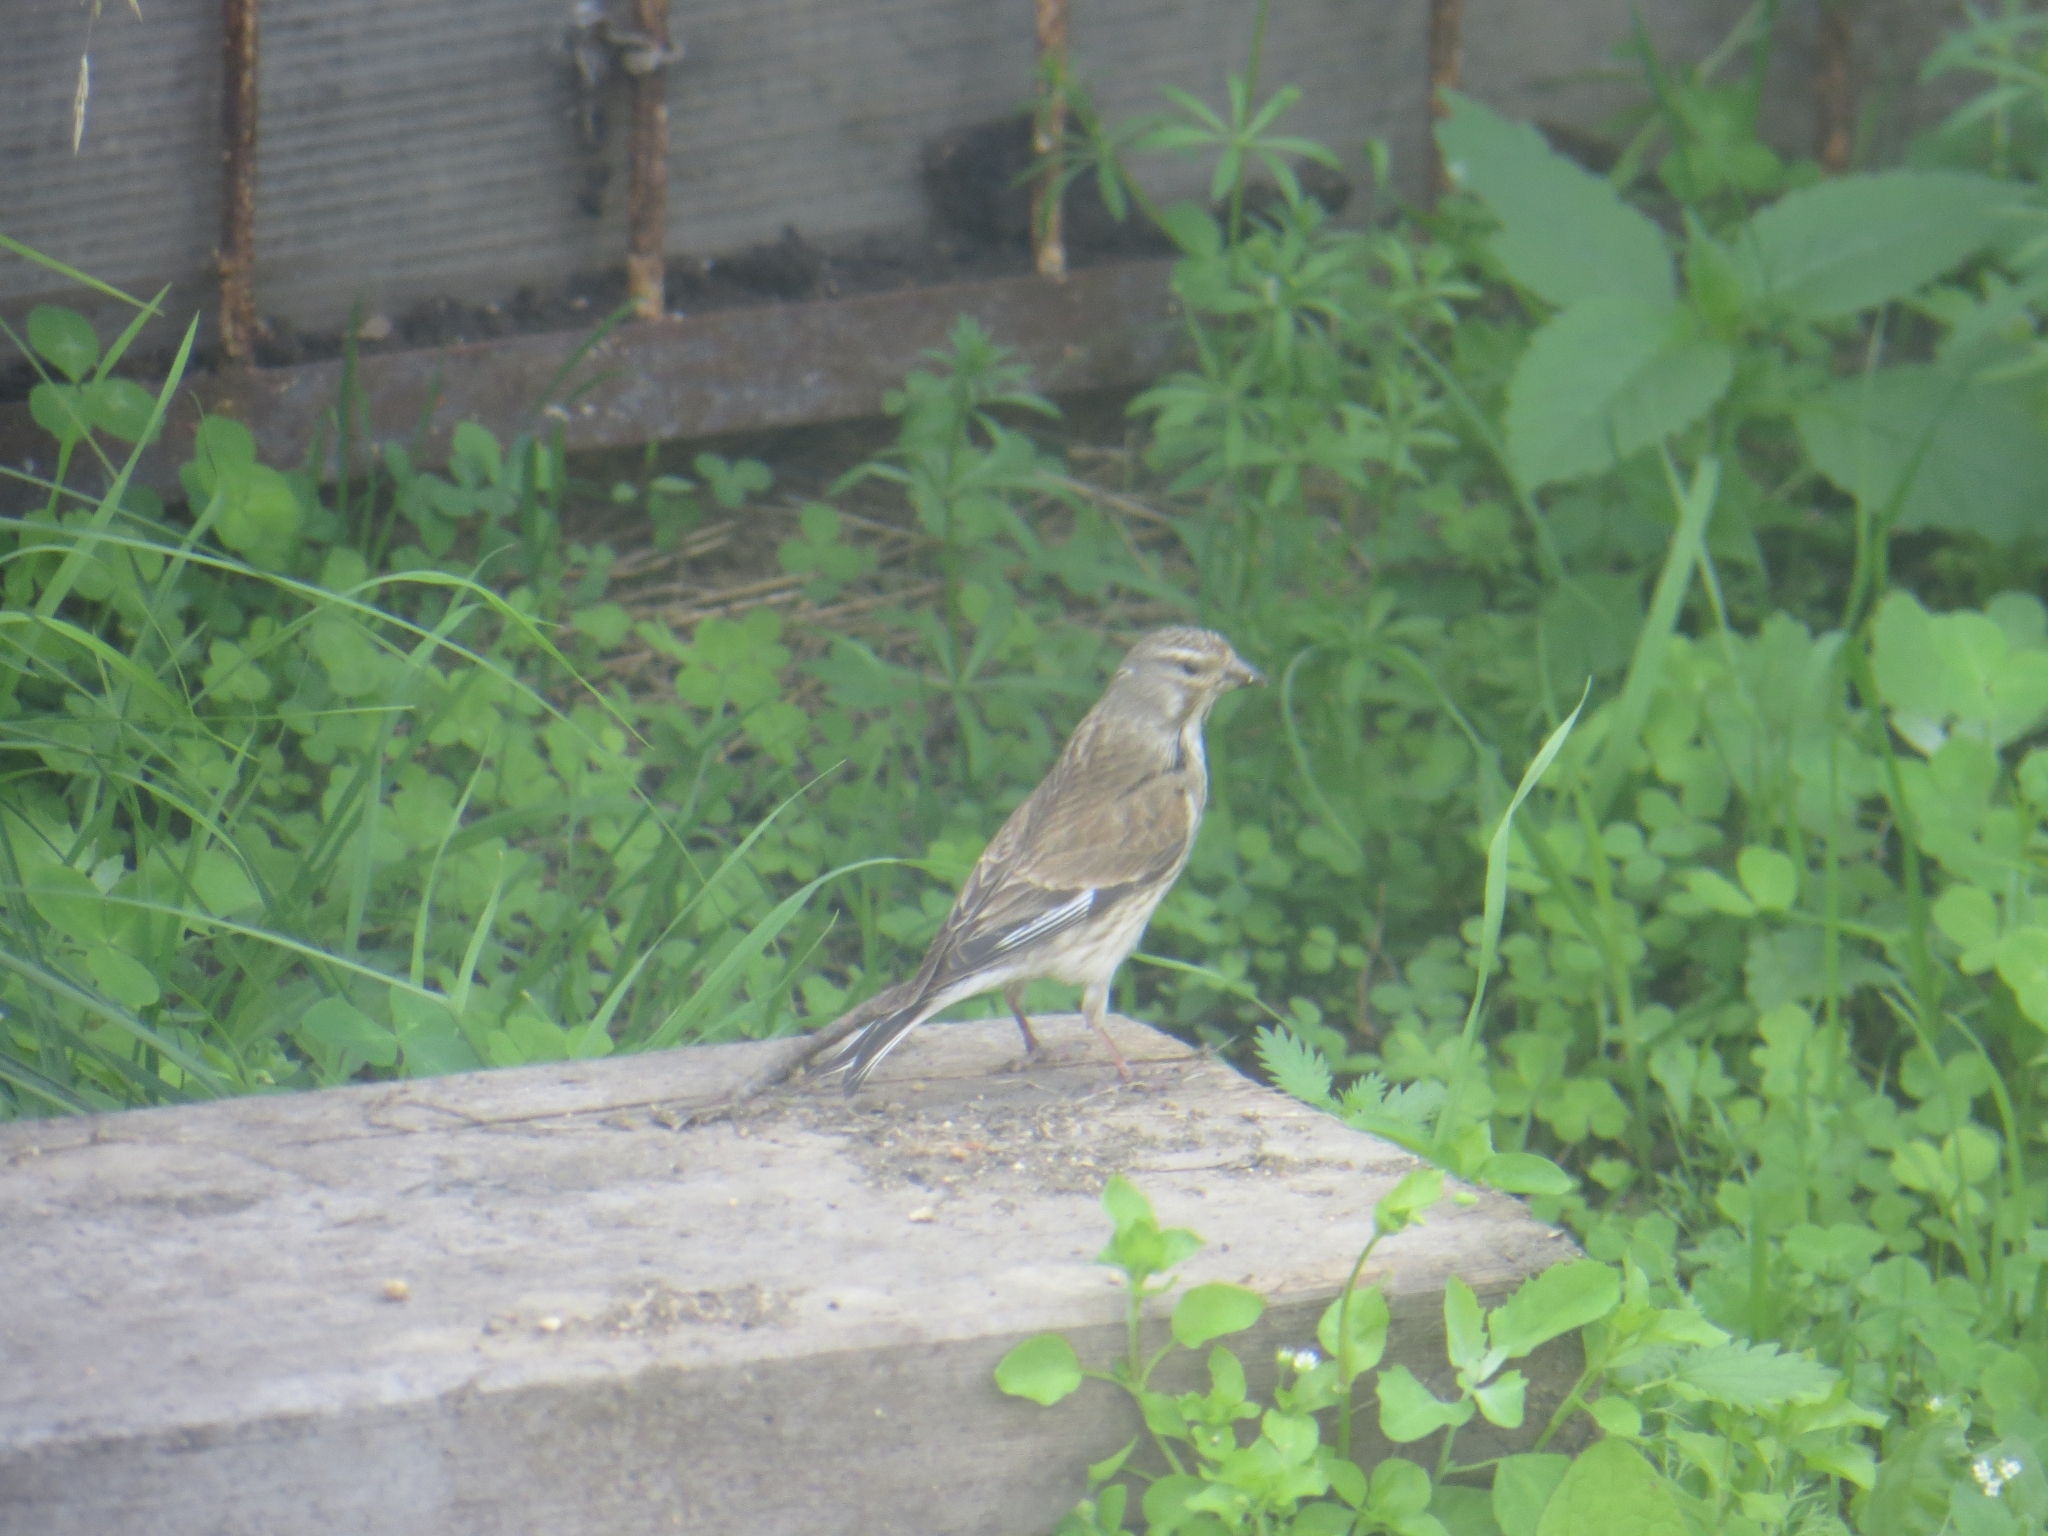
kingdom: Animalia
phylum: Chordata
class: Aves
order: Passeriformes
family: Fringillidae
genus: Linaria
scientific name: Linaria cannabina
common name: Common linnet
